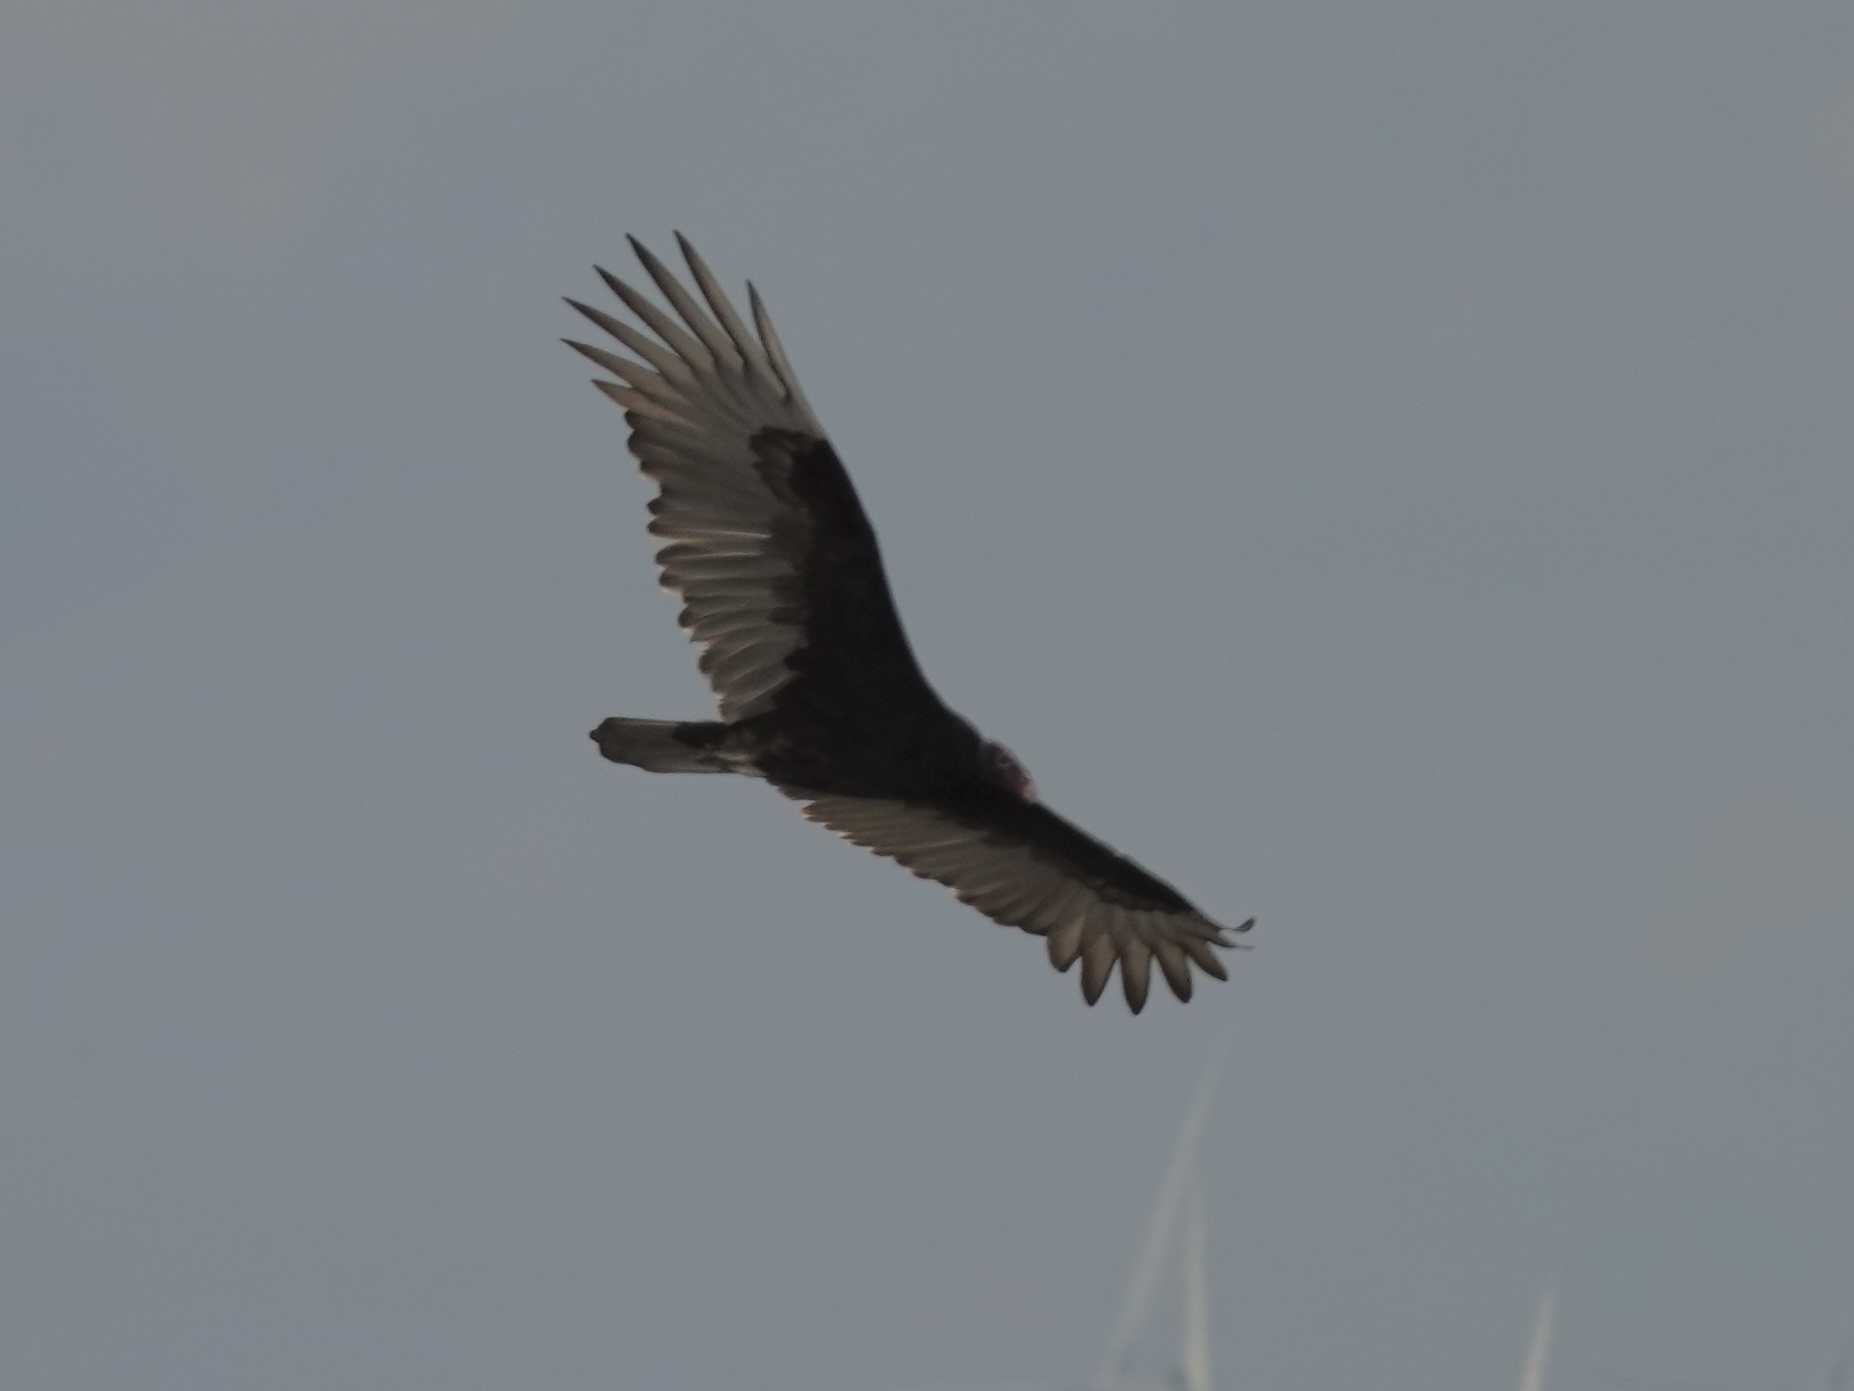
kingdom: Animalia
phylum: Chordata
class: Aves
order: Accipitriformes
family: Cathartidae
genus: Cathartes
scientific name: Cathartes aura
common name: Turkey vulture
